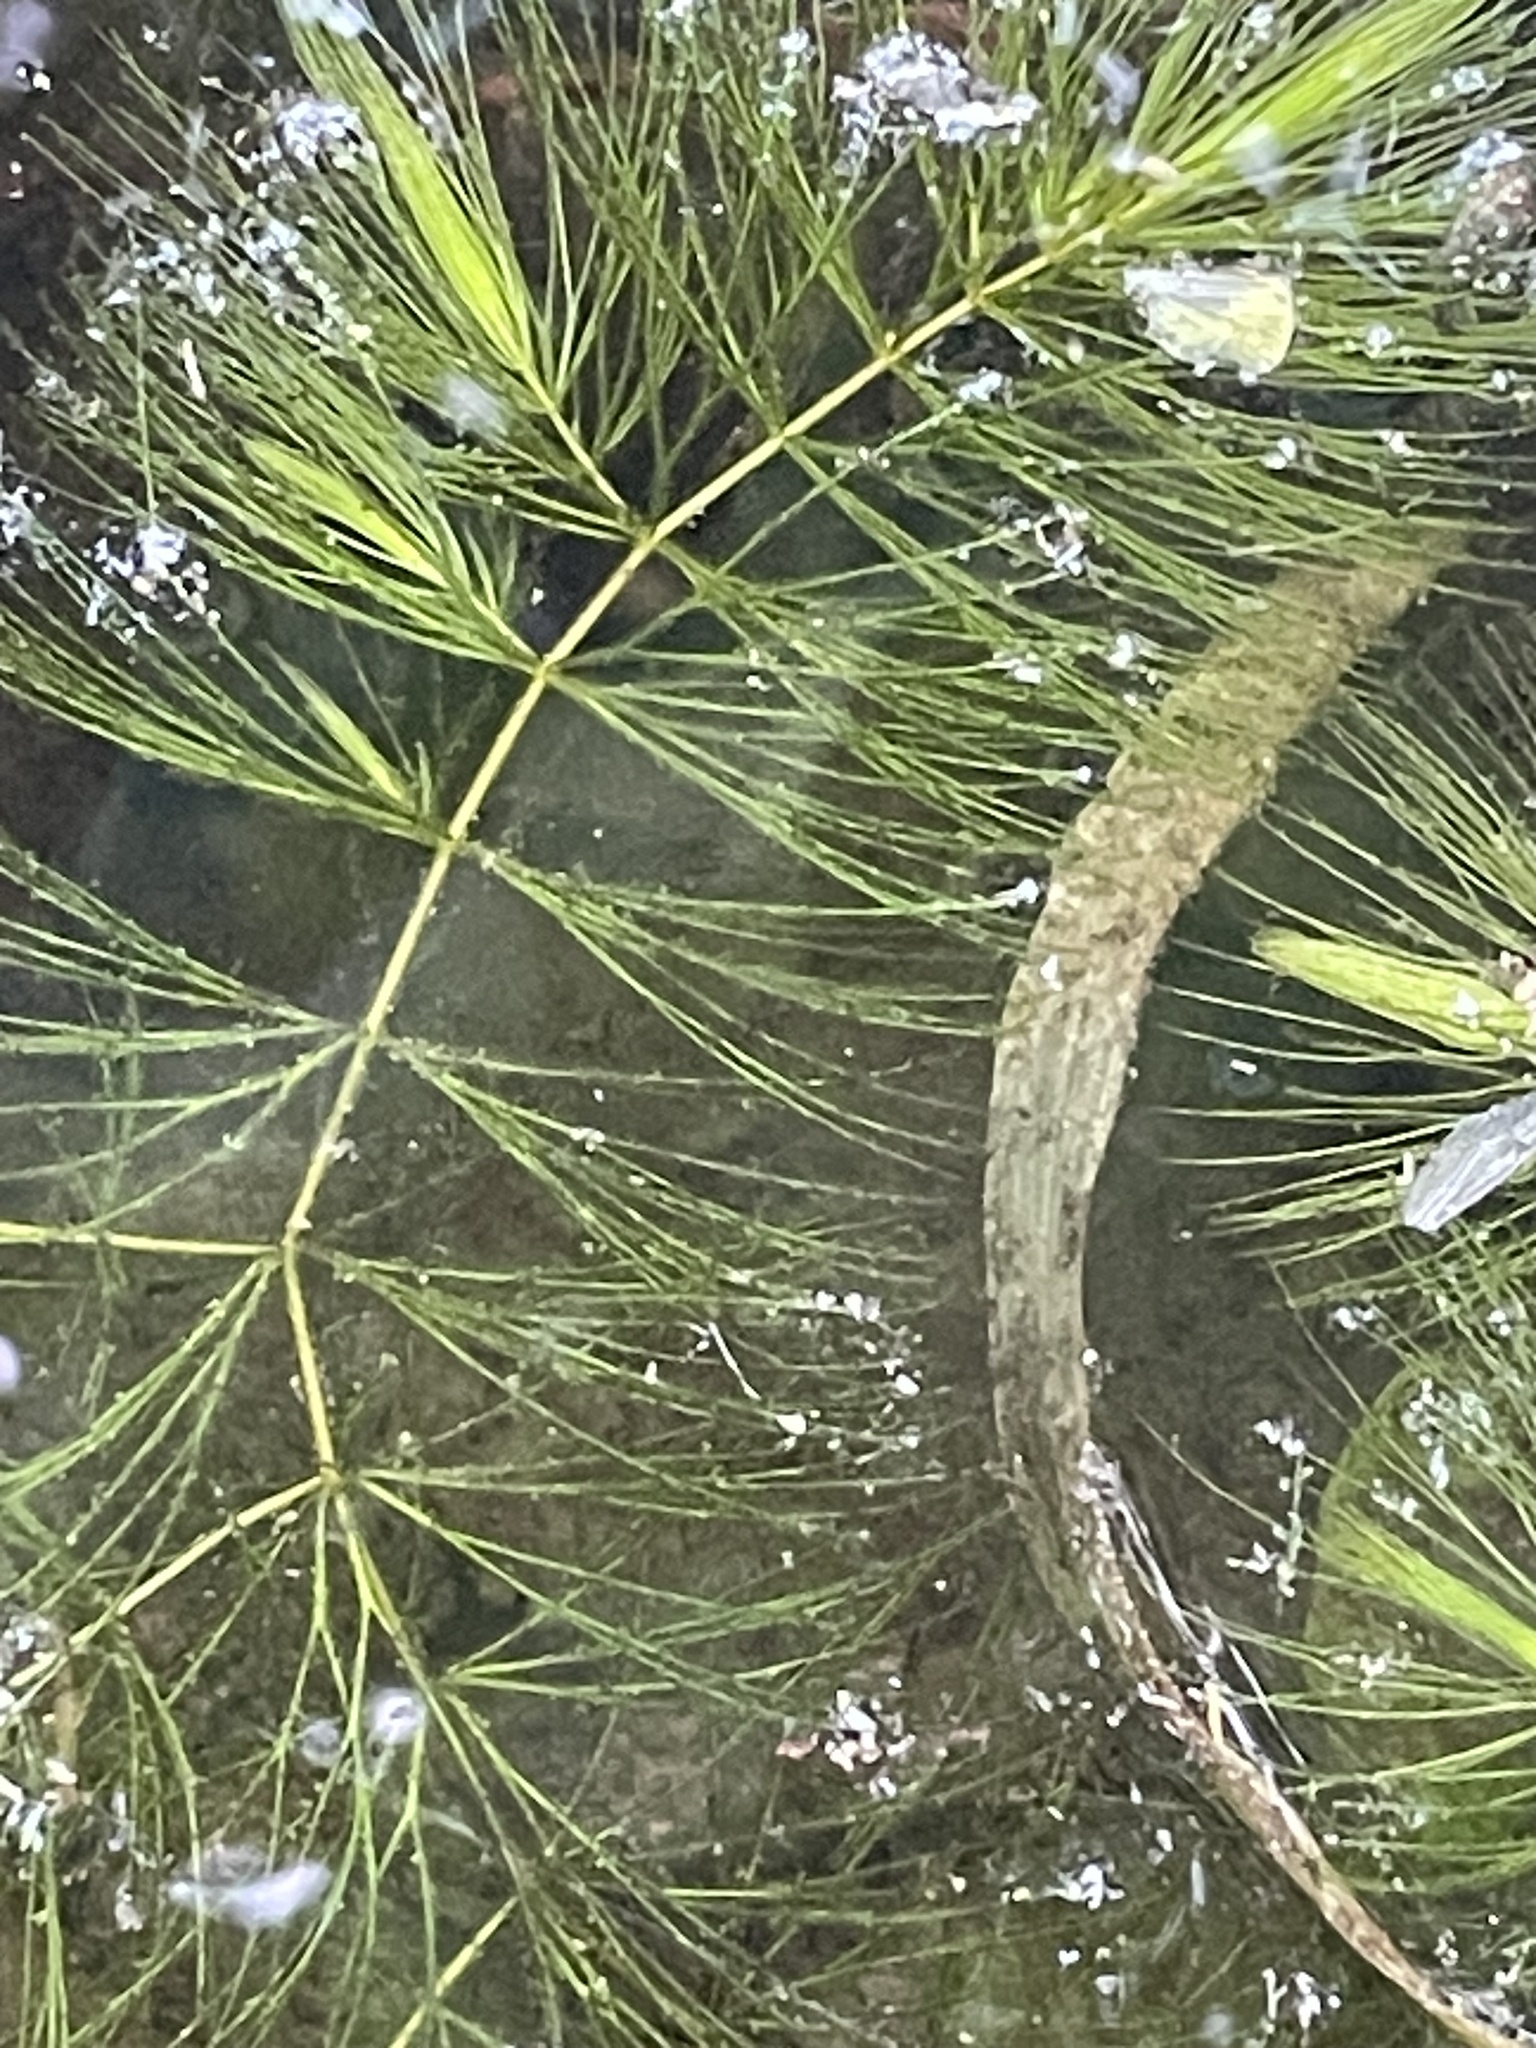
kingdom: Plantae
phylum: Tracheophyta
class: Magnoliopsida
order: Ceratophyllales
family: Ceratophyllaceae
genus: Ceratophyllum
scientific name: Ceratophyllum echinatum
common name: Prickly coontail
